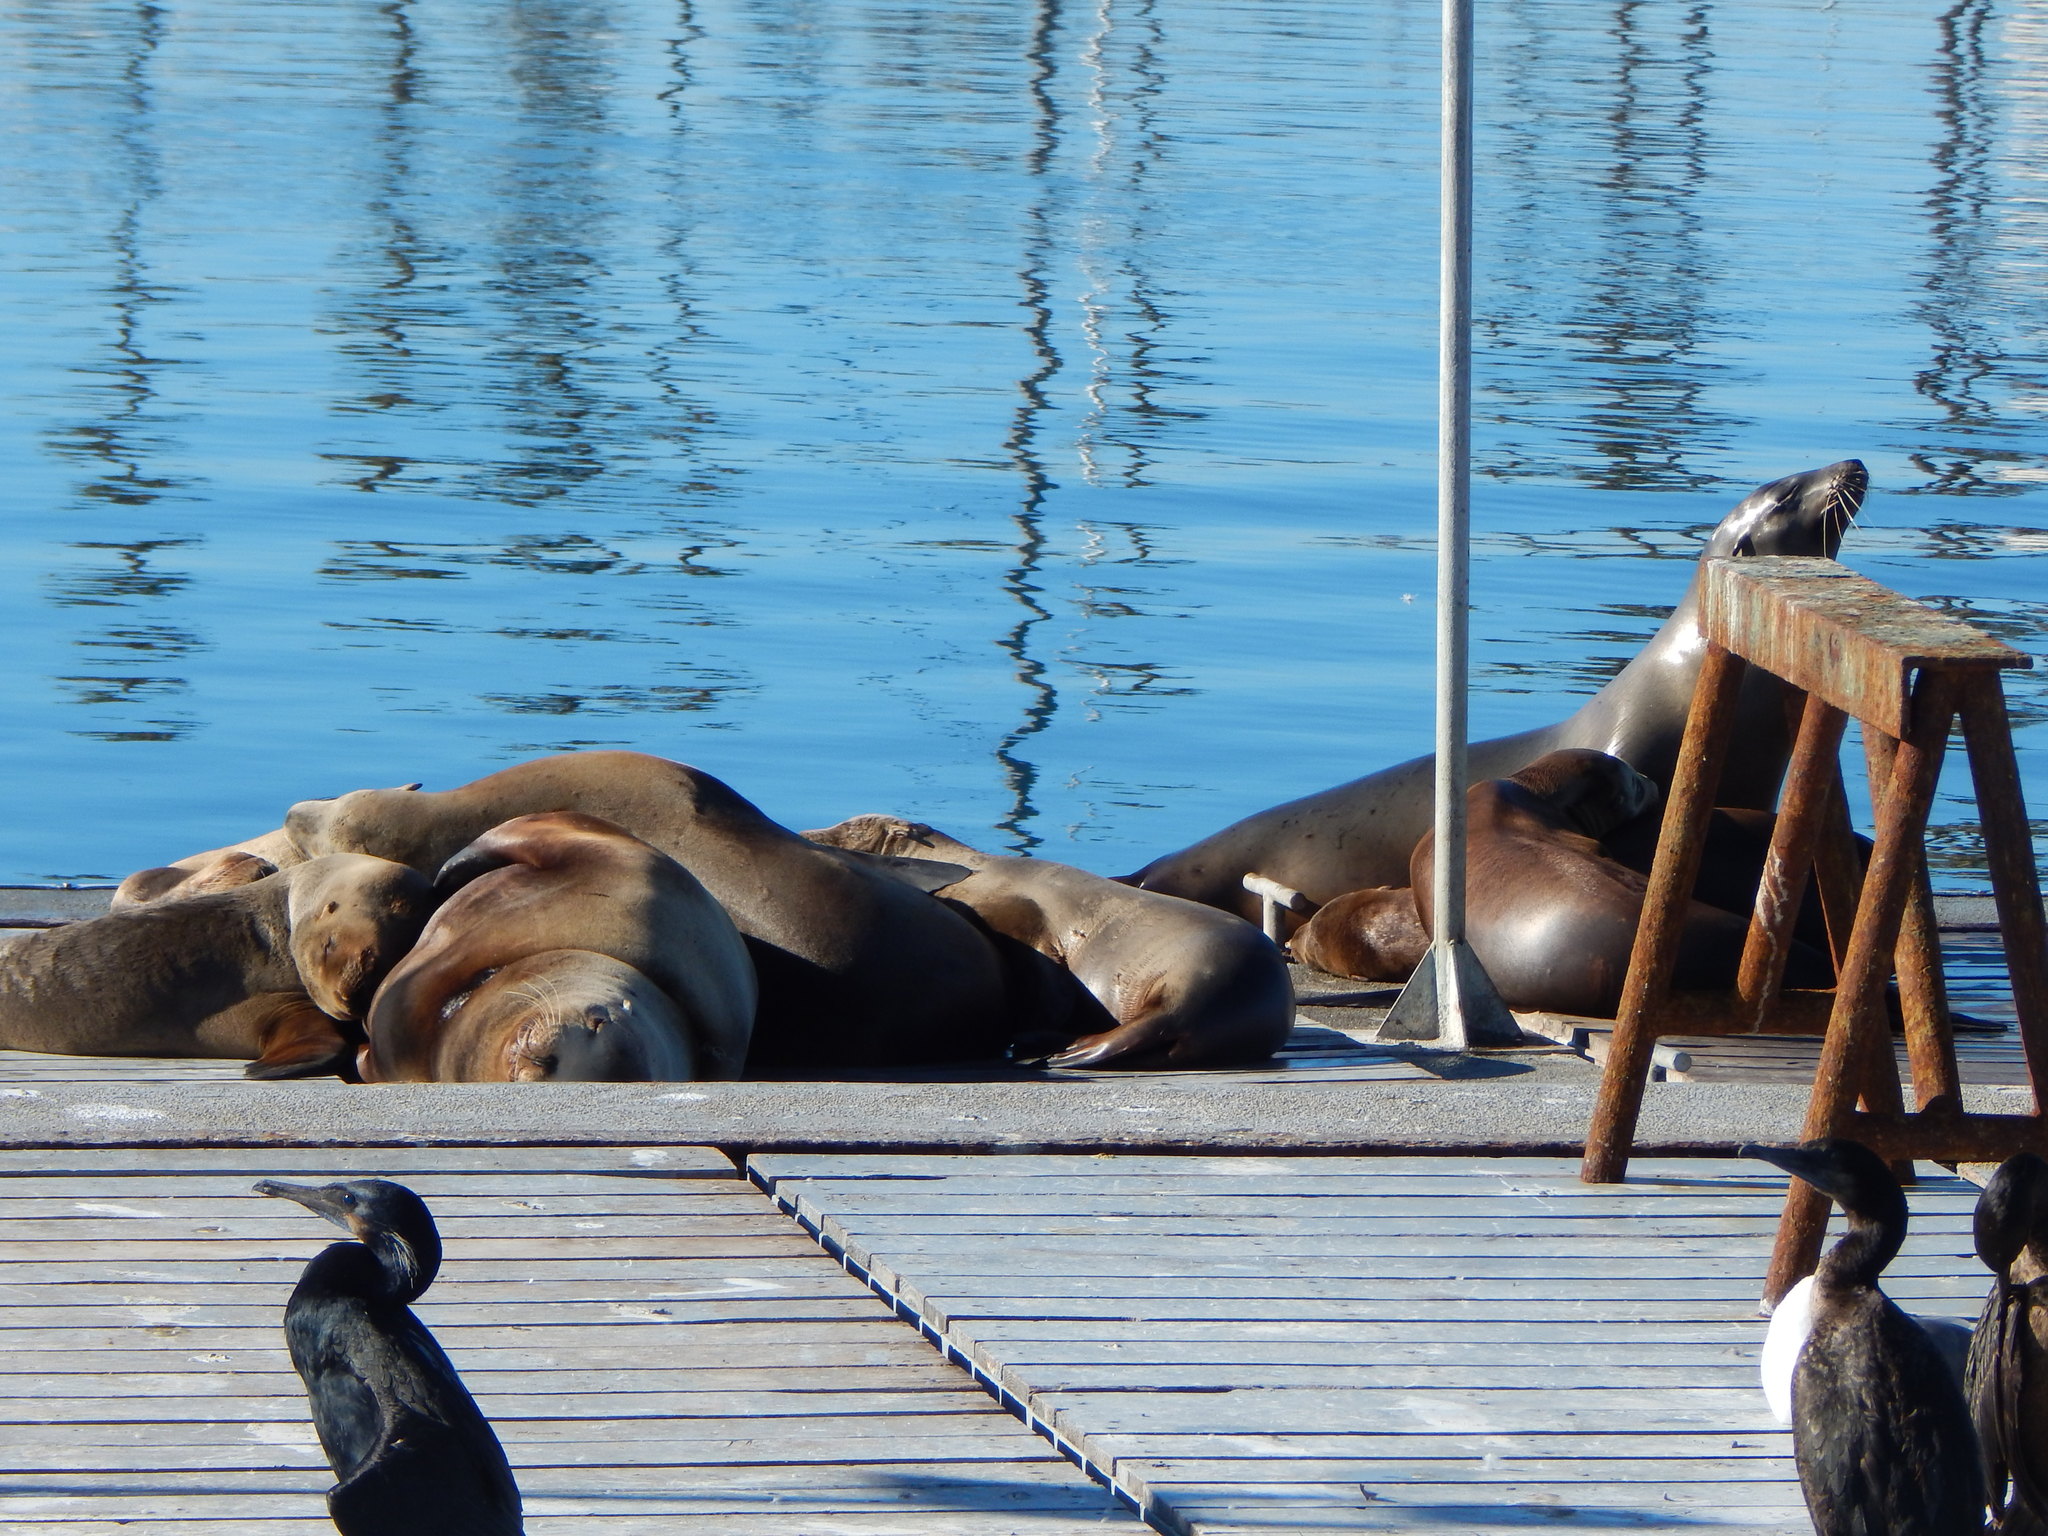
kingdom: Animalia
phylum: Chordata
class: Mammalia
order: Carnivora
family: Otariidae
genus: Zalophus
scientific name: Zalophus californianus
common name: California sea lion
